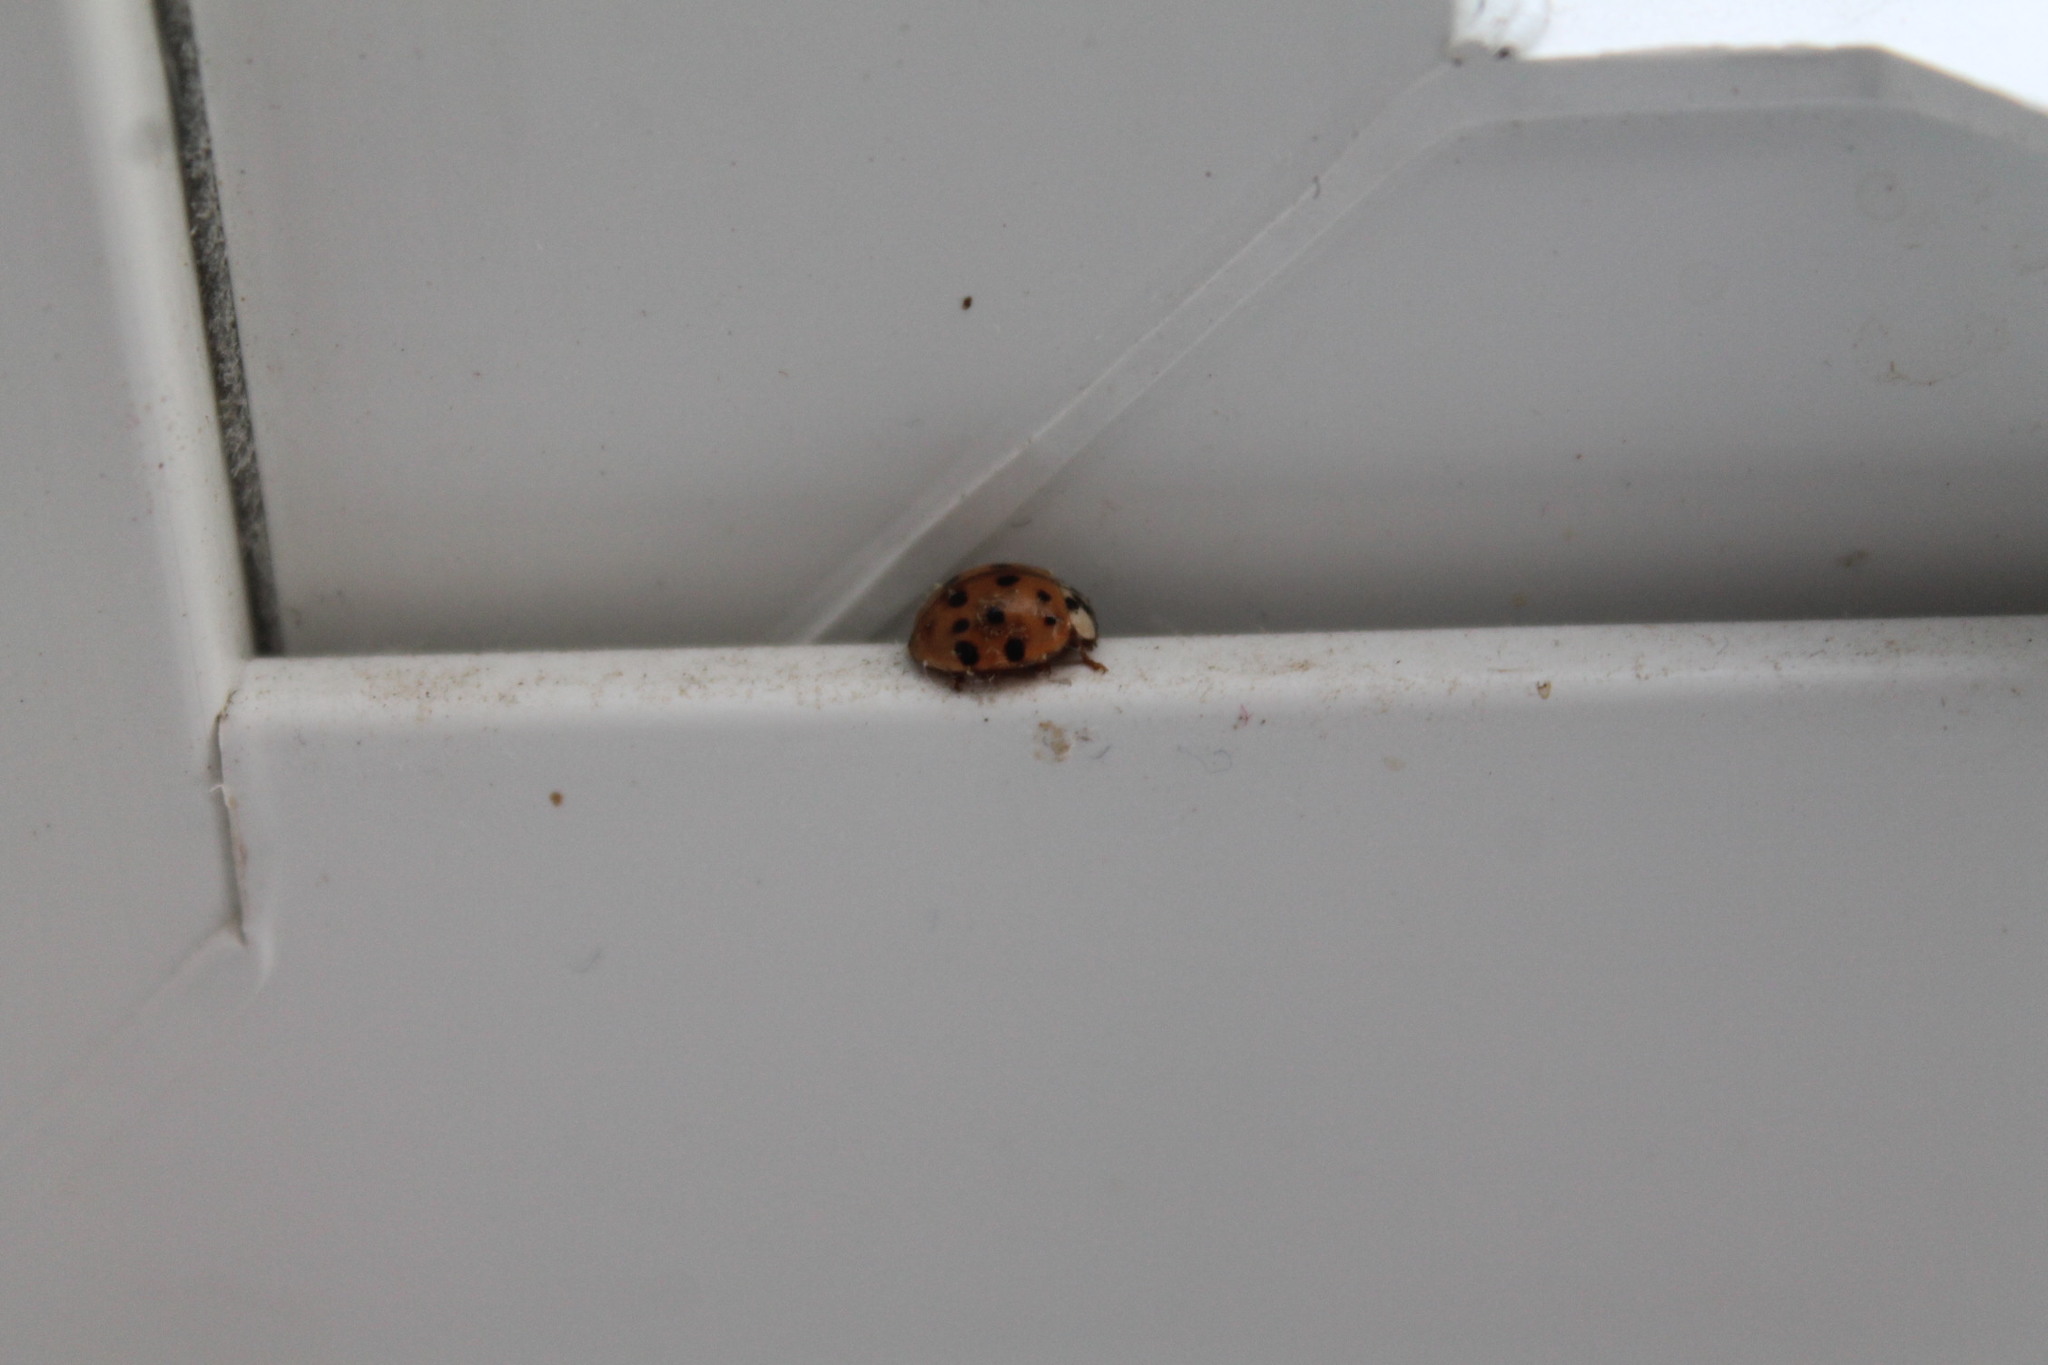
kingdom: Animalia
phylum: Arthropoda
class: Insecta
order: Coleoptera
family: Coccinellidae
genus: Harmonia
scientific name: Harmonia axyridis
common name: Harlequin ladybird
